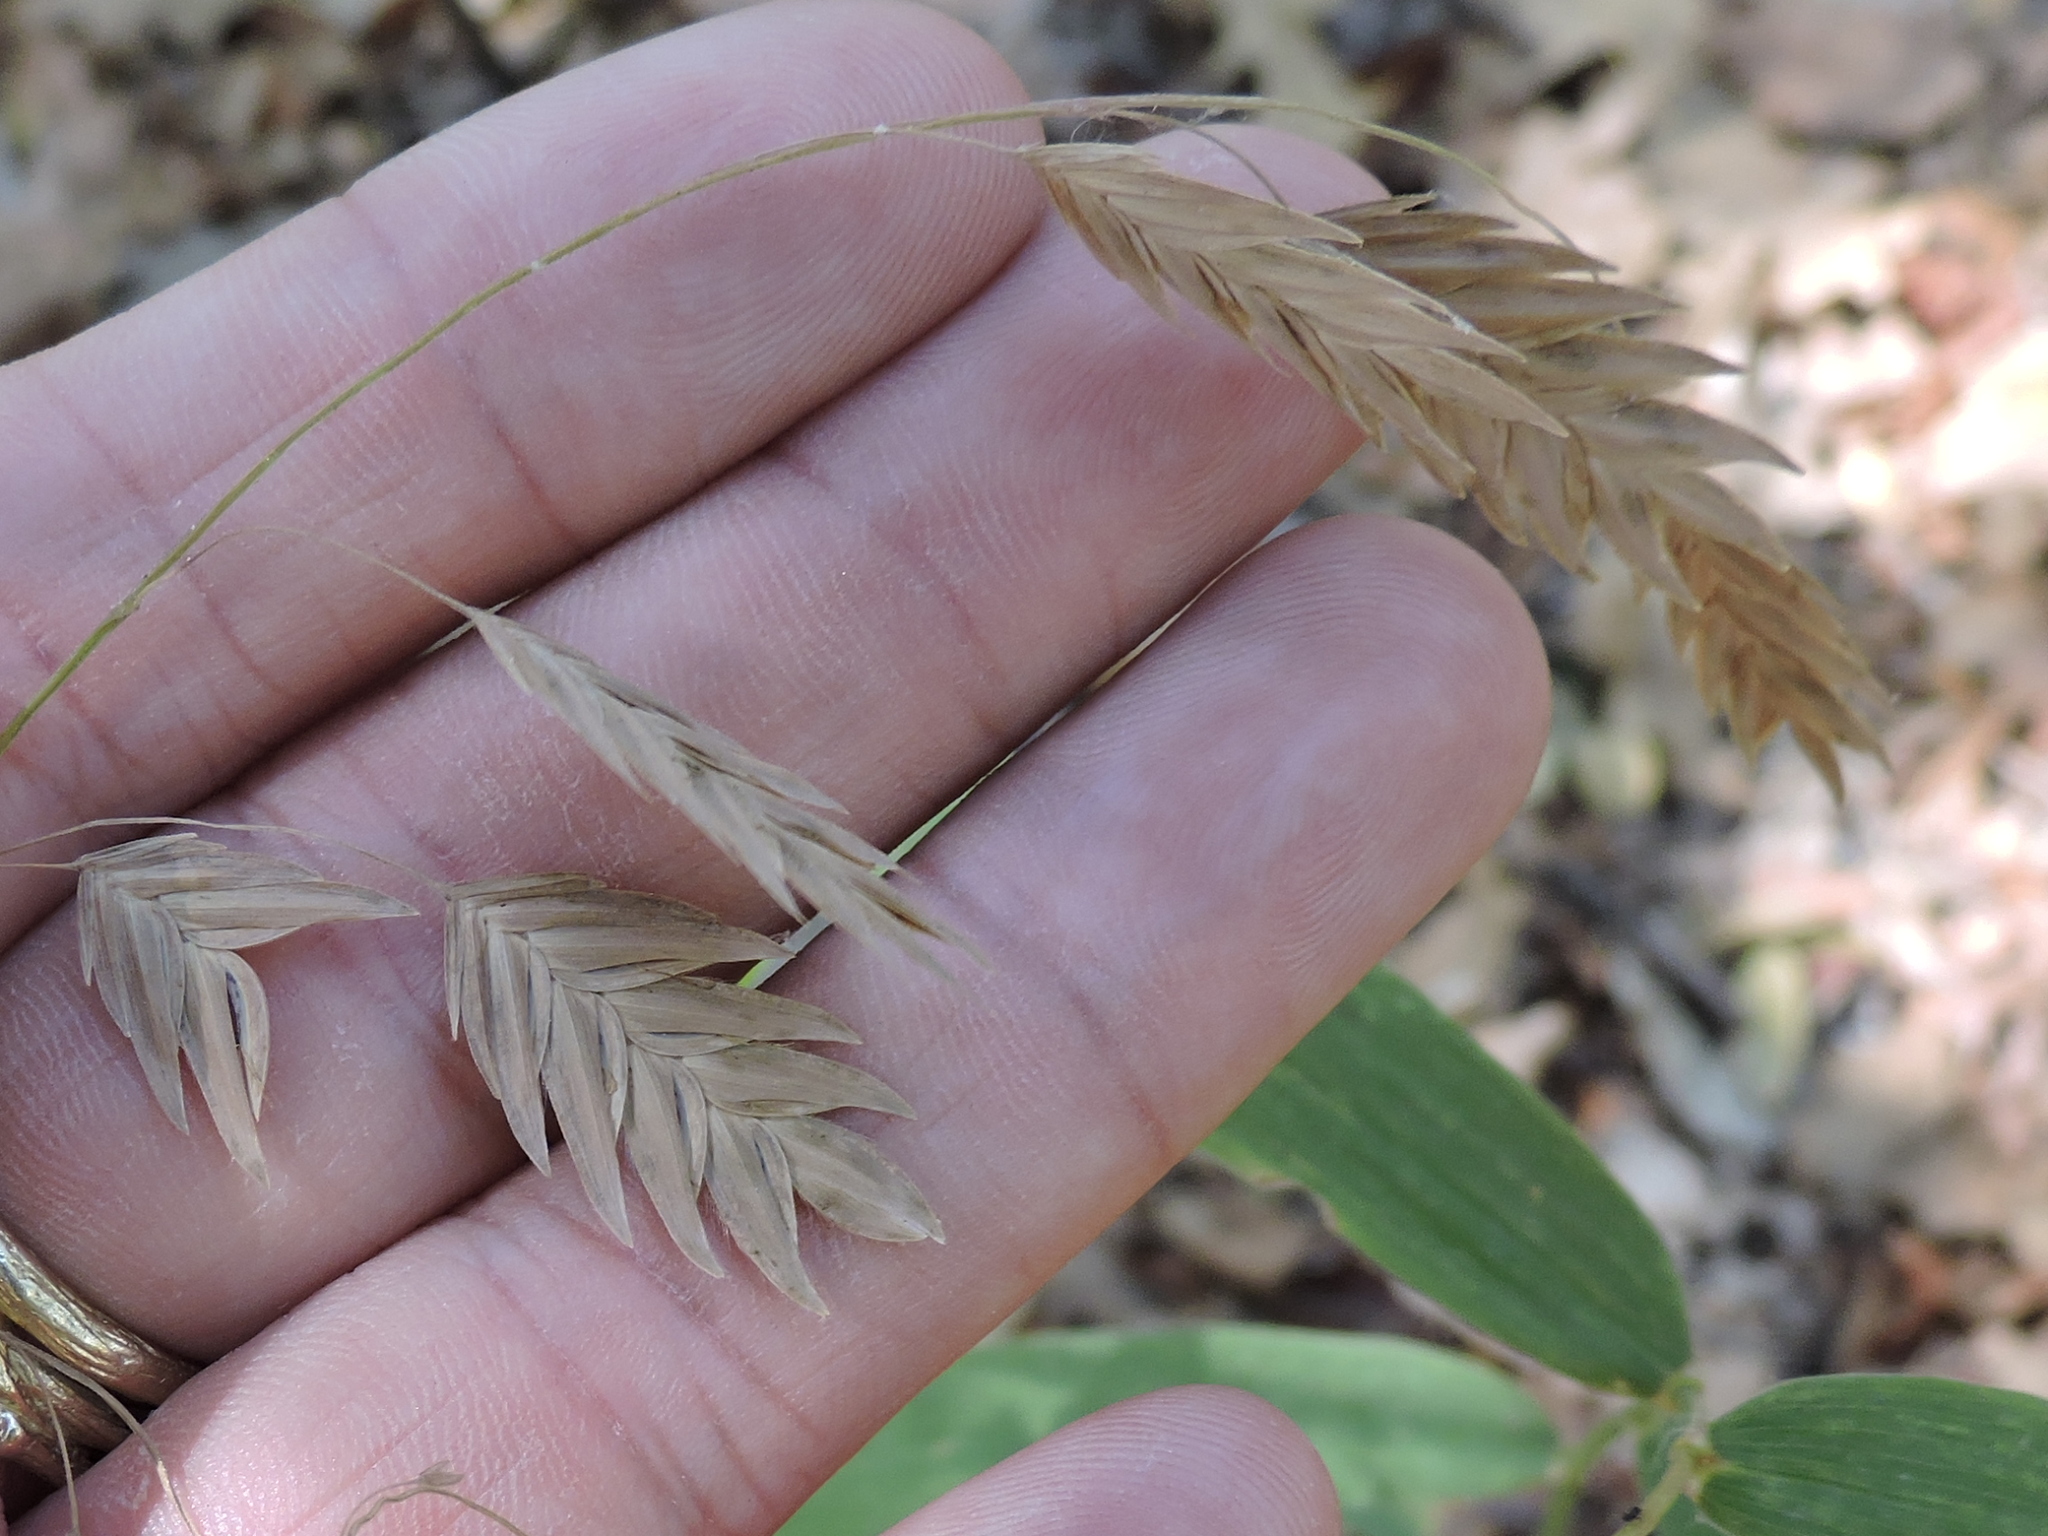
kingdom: Plantae
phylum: Tracheophyta
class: Liliopsida
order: Poales
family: Poaceae
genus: Chasmanthium
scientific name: Chasmanthium latifolium
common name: Broad-leaved chasmanthium
